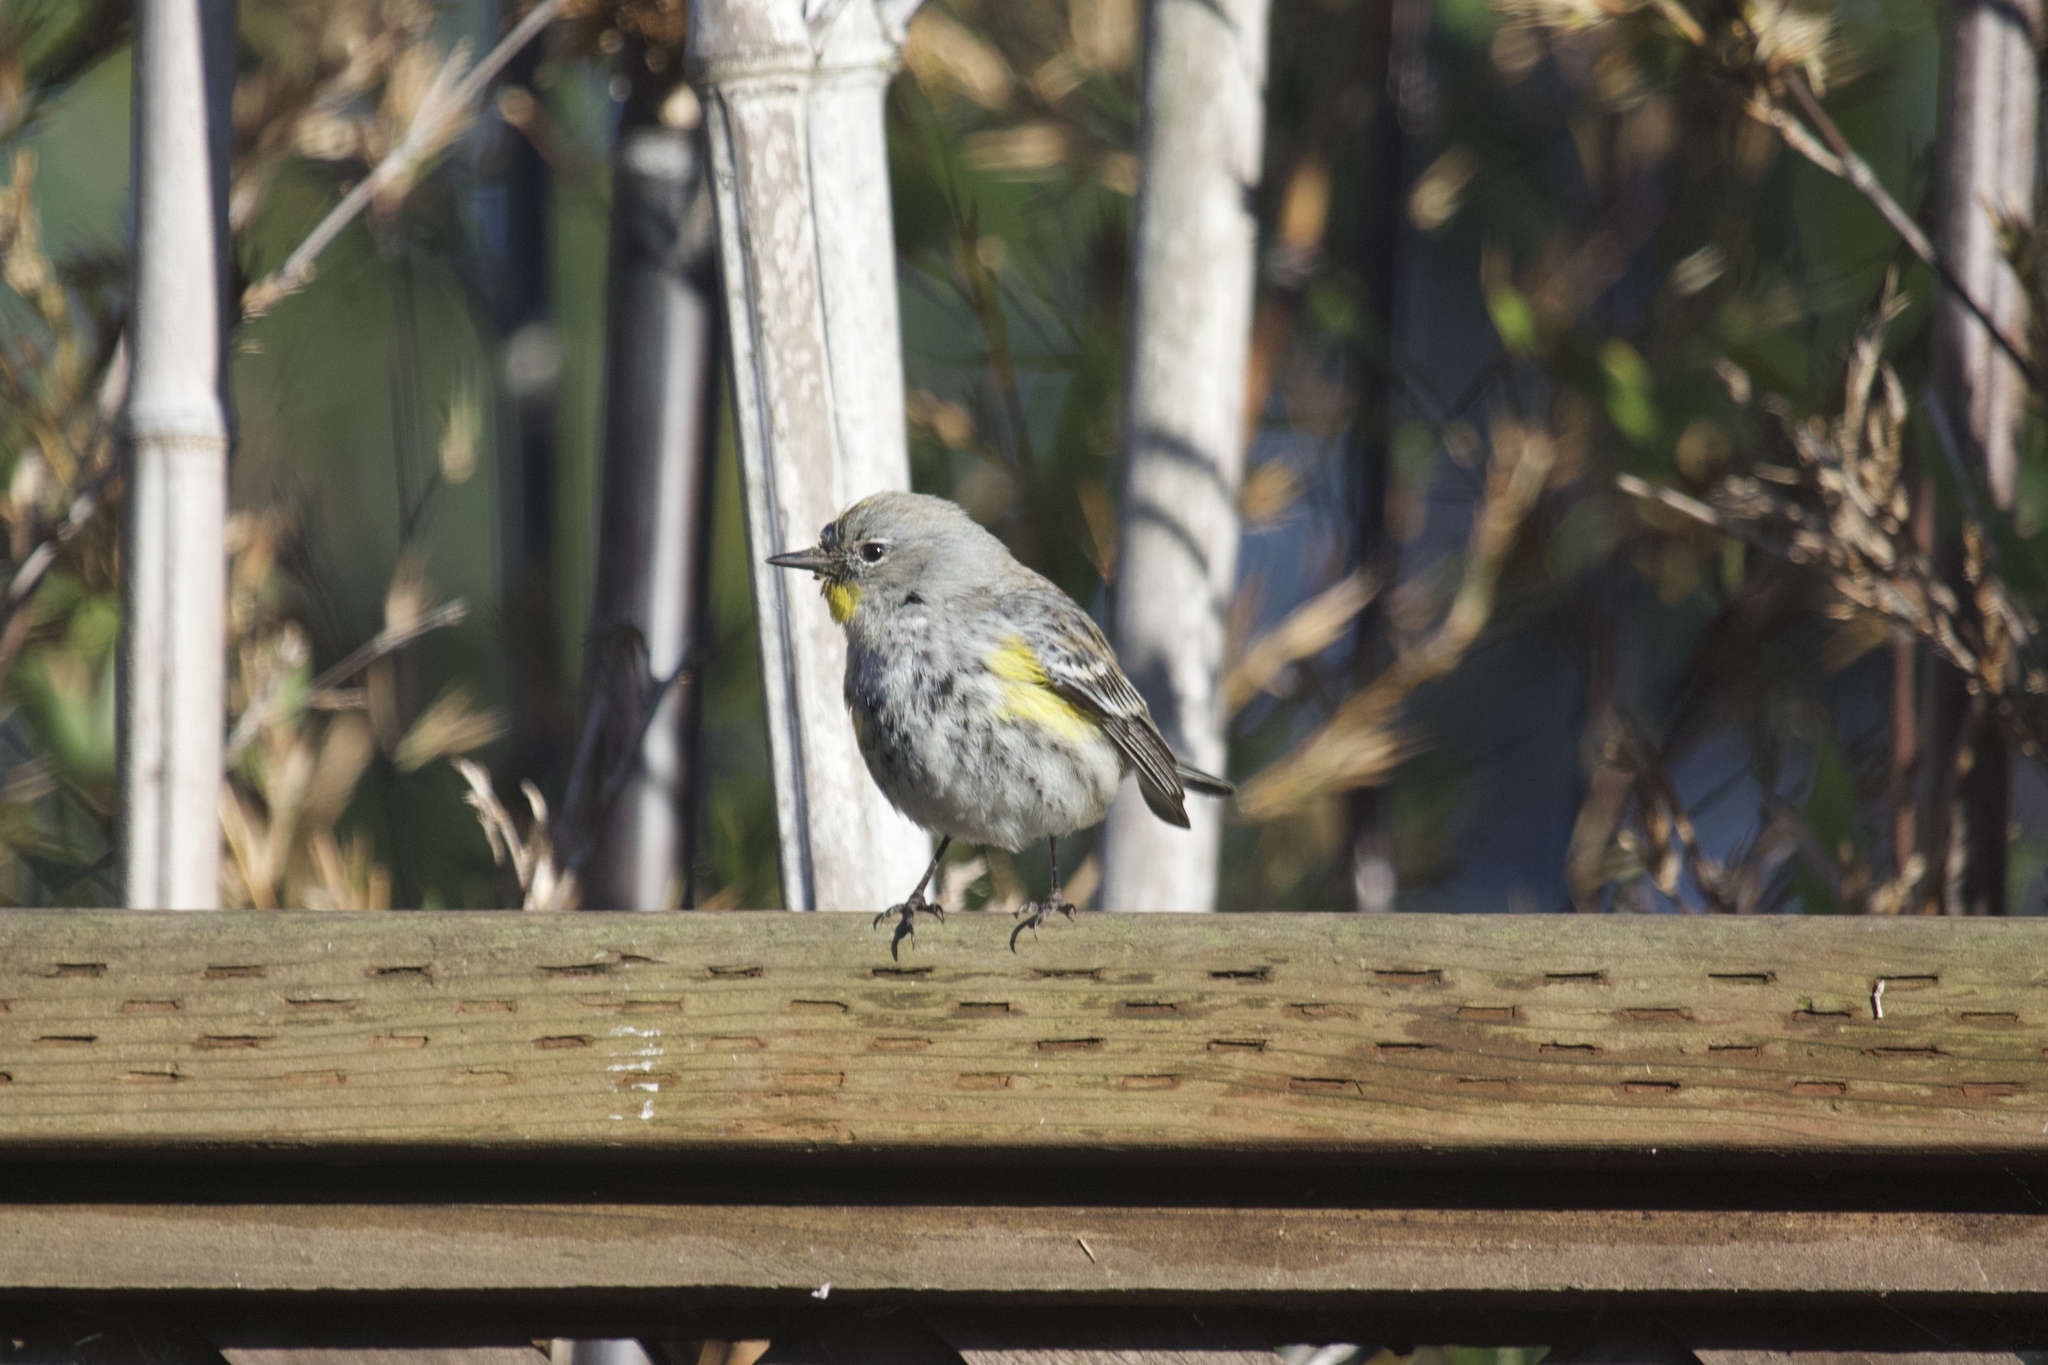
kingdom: Animalia
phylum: Chordata
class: Aves
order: Passeriformes
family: Parulidae
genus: Setophaga
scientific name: Setophaga coronata
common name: Myrtle warbler
